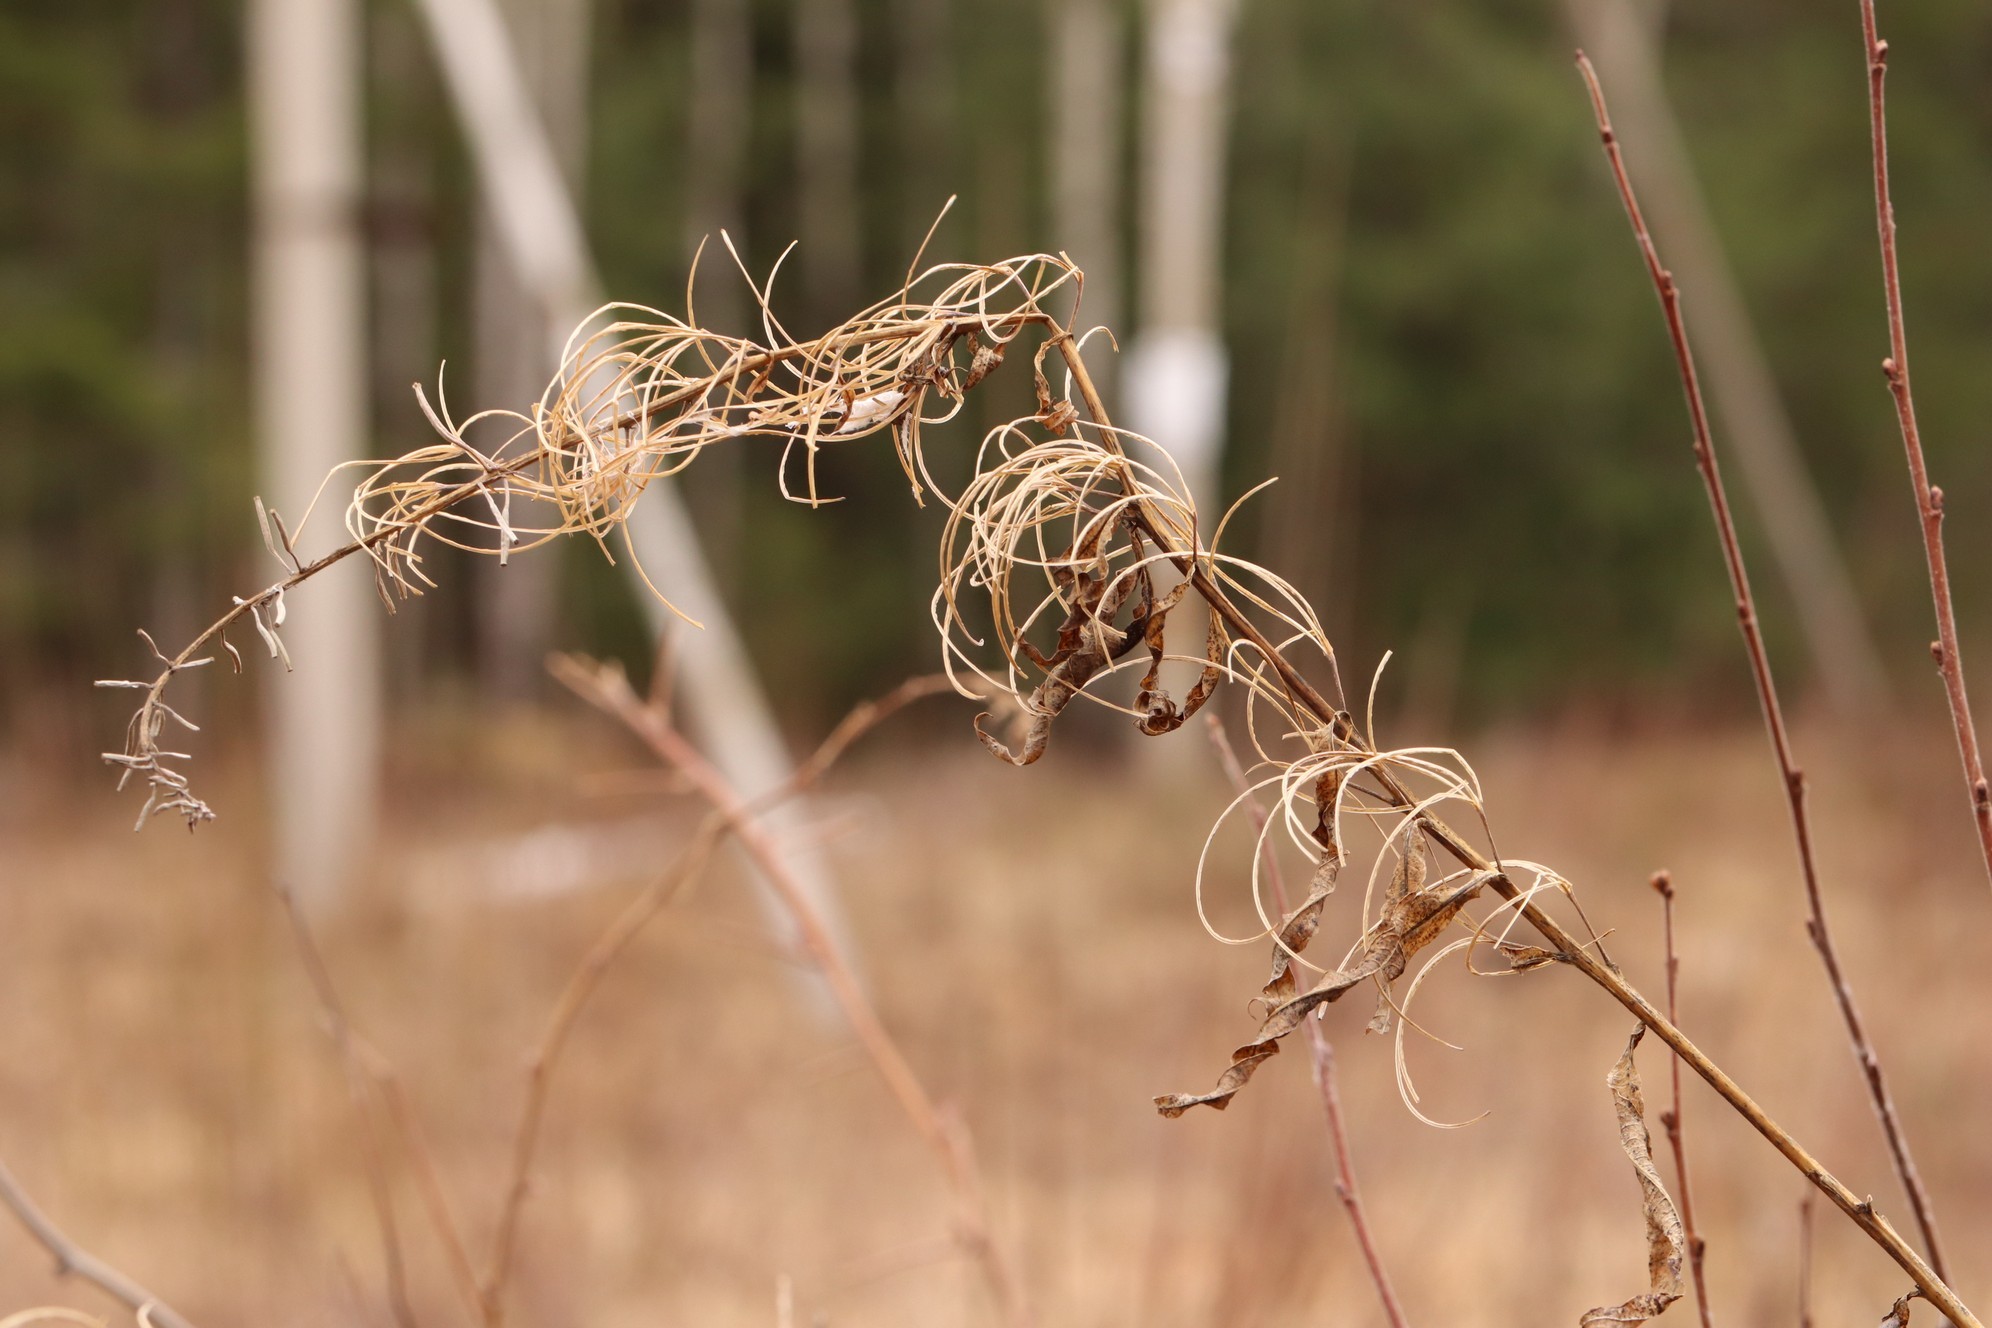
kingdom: Plantae
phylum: Tracheophyta
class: Magnoliopsida
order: Myrtales
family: Onagraceae
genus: Chamaenerion
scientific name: Chamaenerion angustifolium
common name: Fireweed
